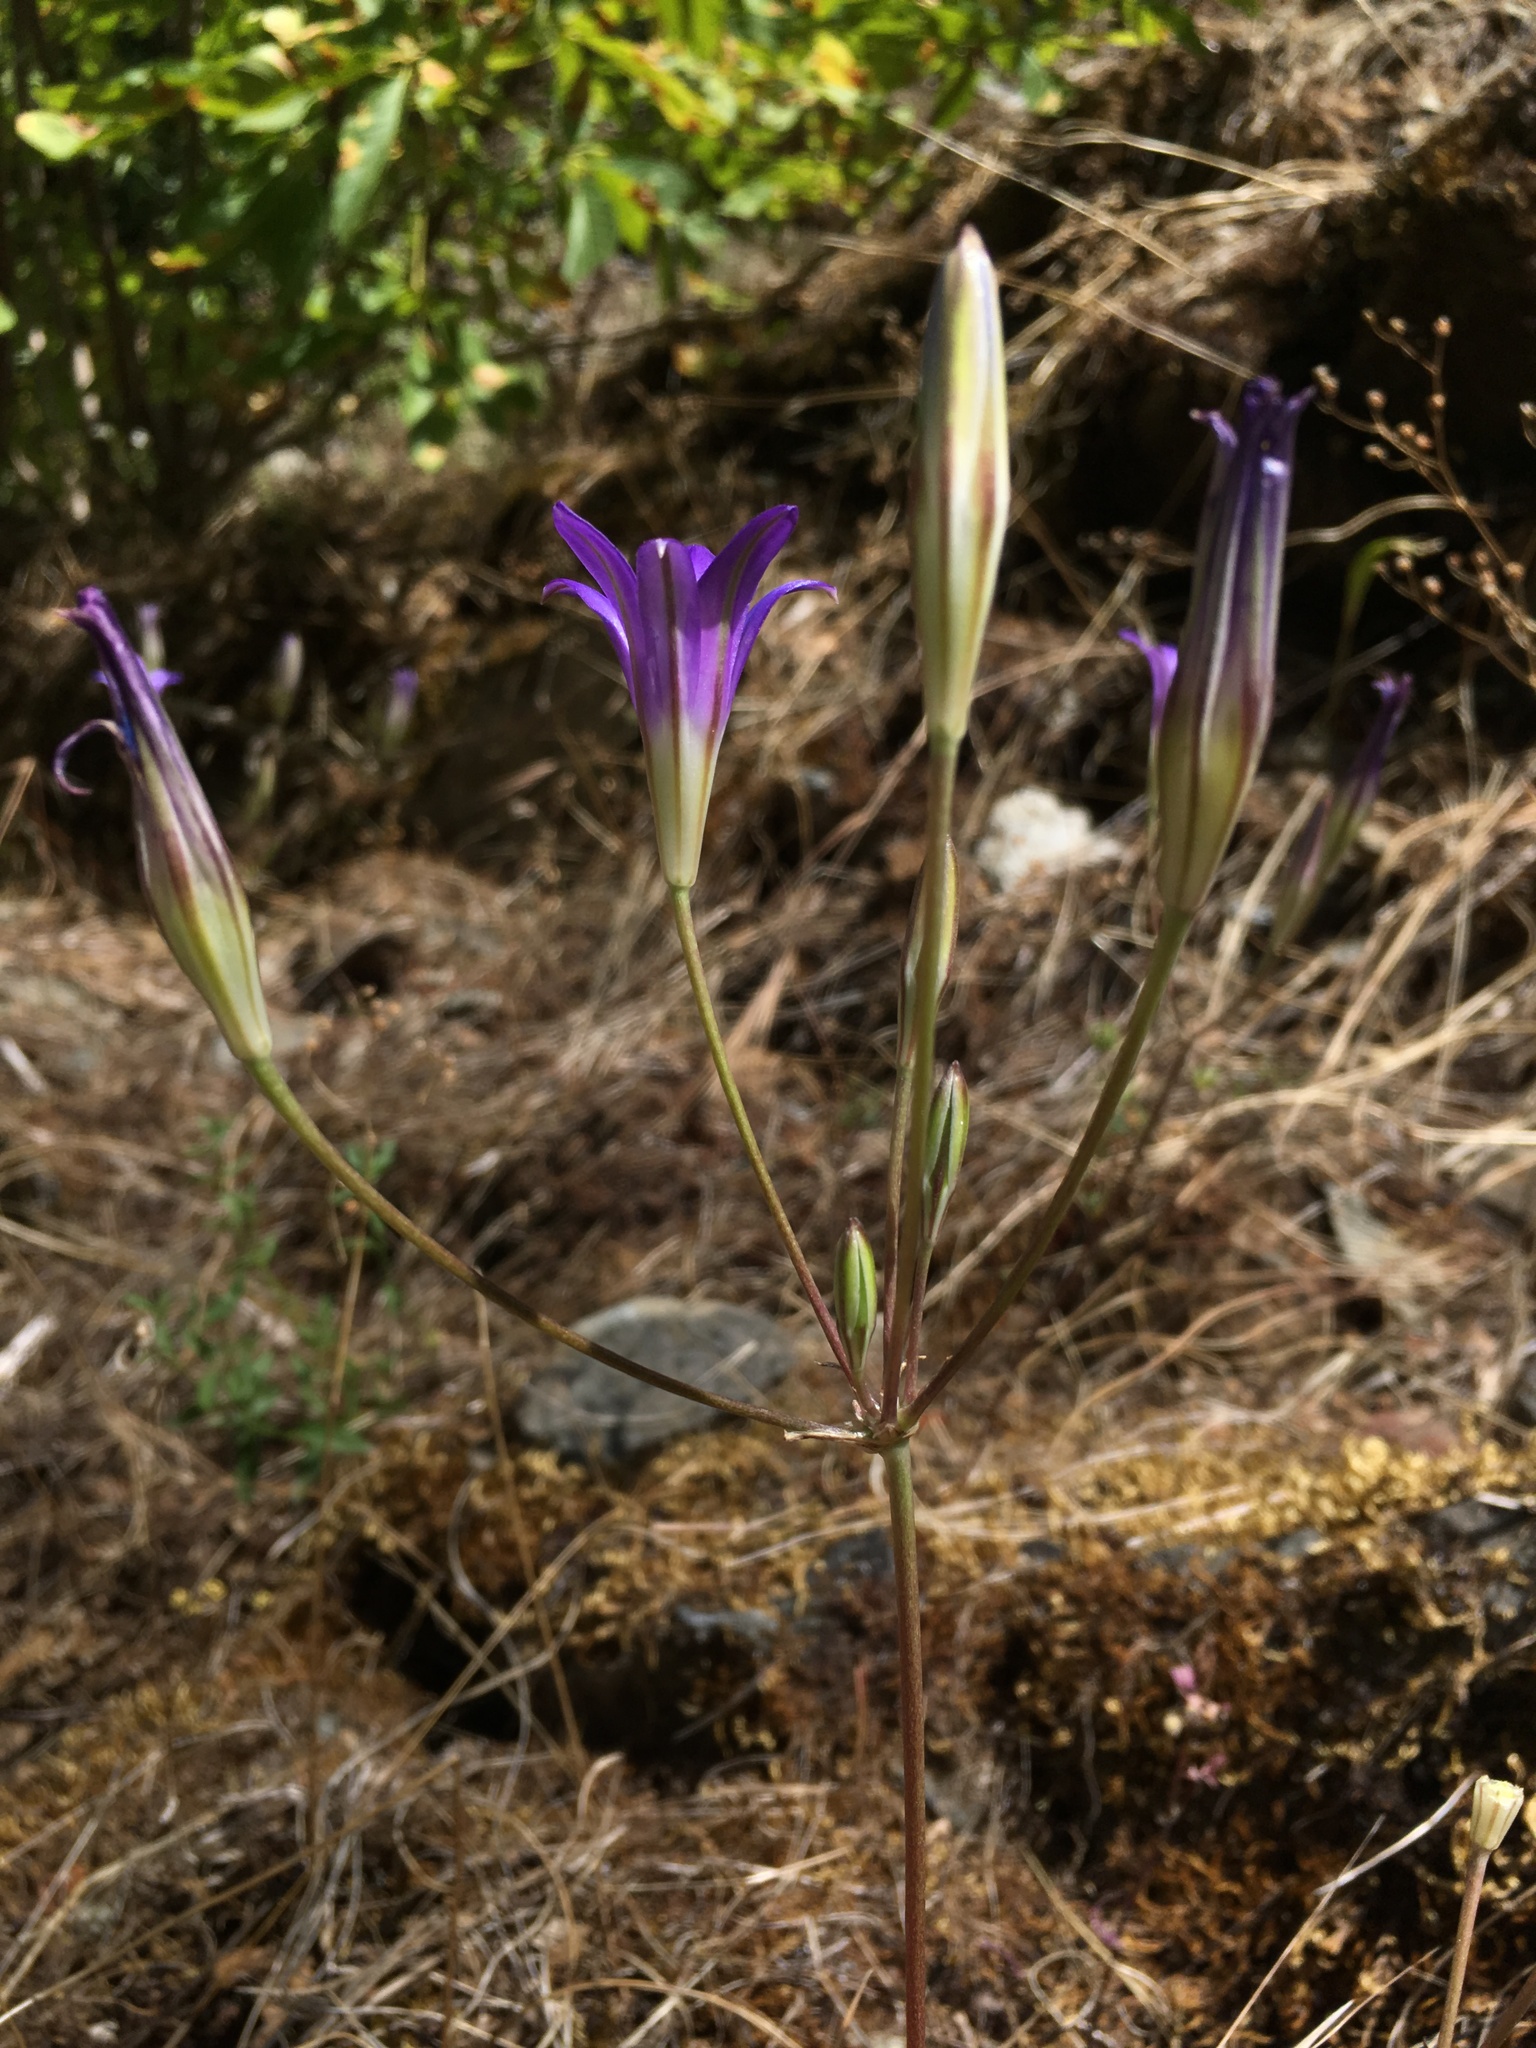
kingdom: Plantae
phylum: Tracheophyta
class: Liliopsida
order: Asparagales
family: Asparagaceae
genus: Brodiaea
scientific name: Brodiaea elegans
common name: Elegant cluster-lily
